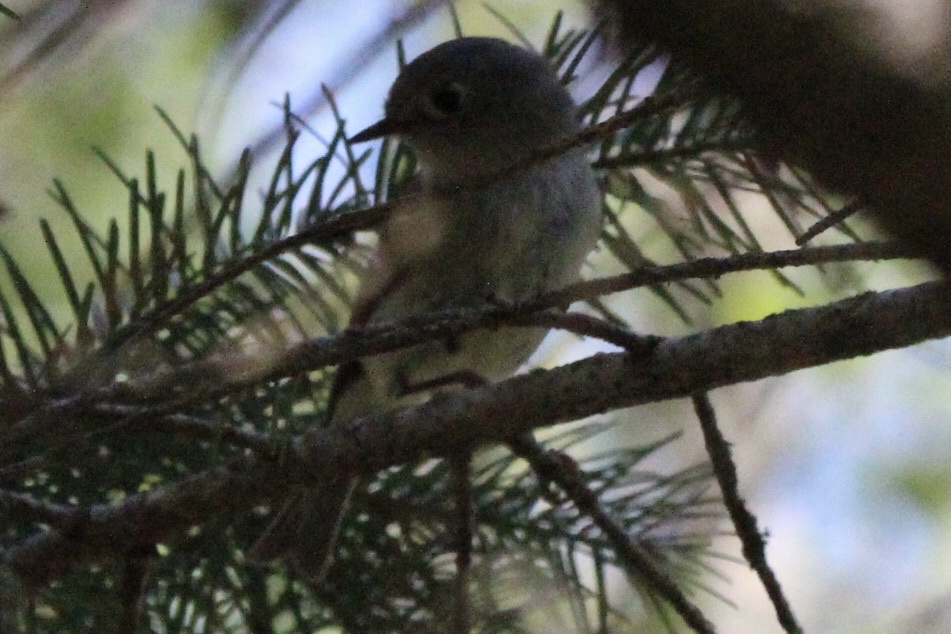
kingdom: Animalia
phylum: Chordata
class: Aves
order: Passeriformes
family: Regulidae
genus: Regulus
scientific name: Regulus calendula
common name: Ruby-crowned kinglet
